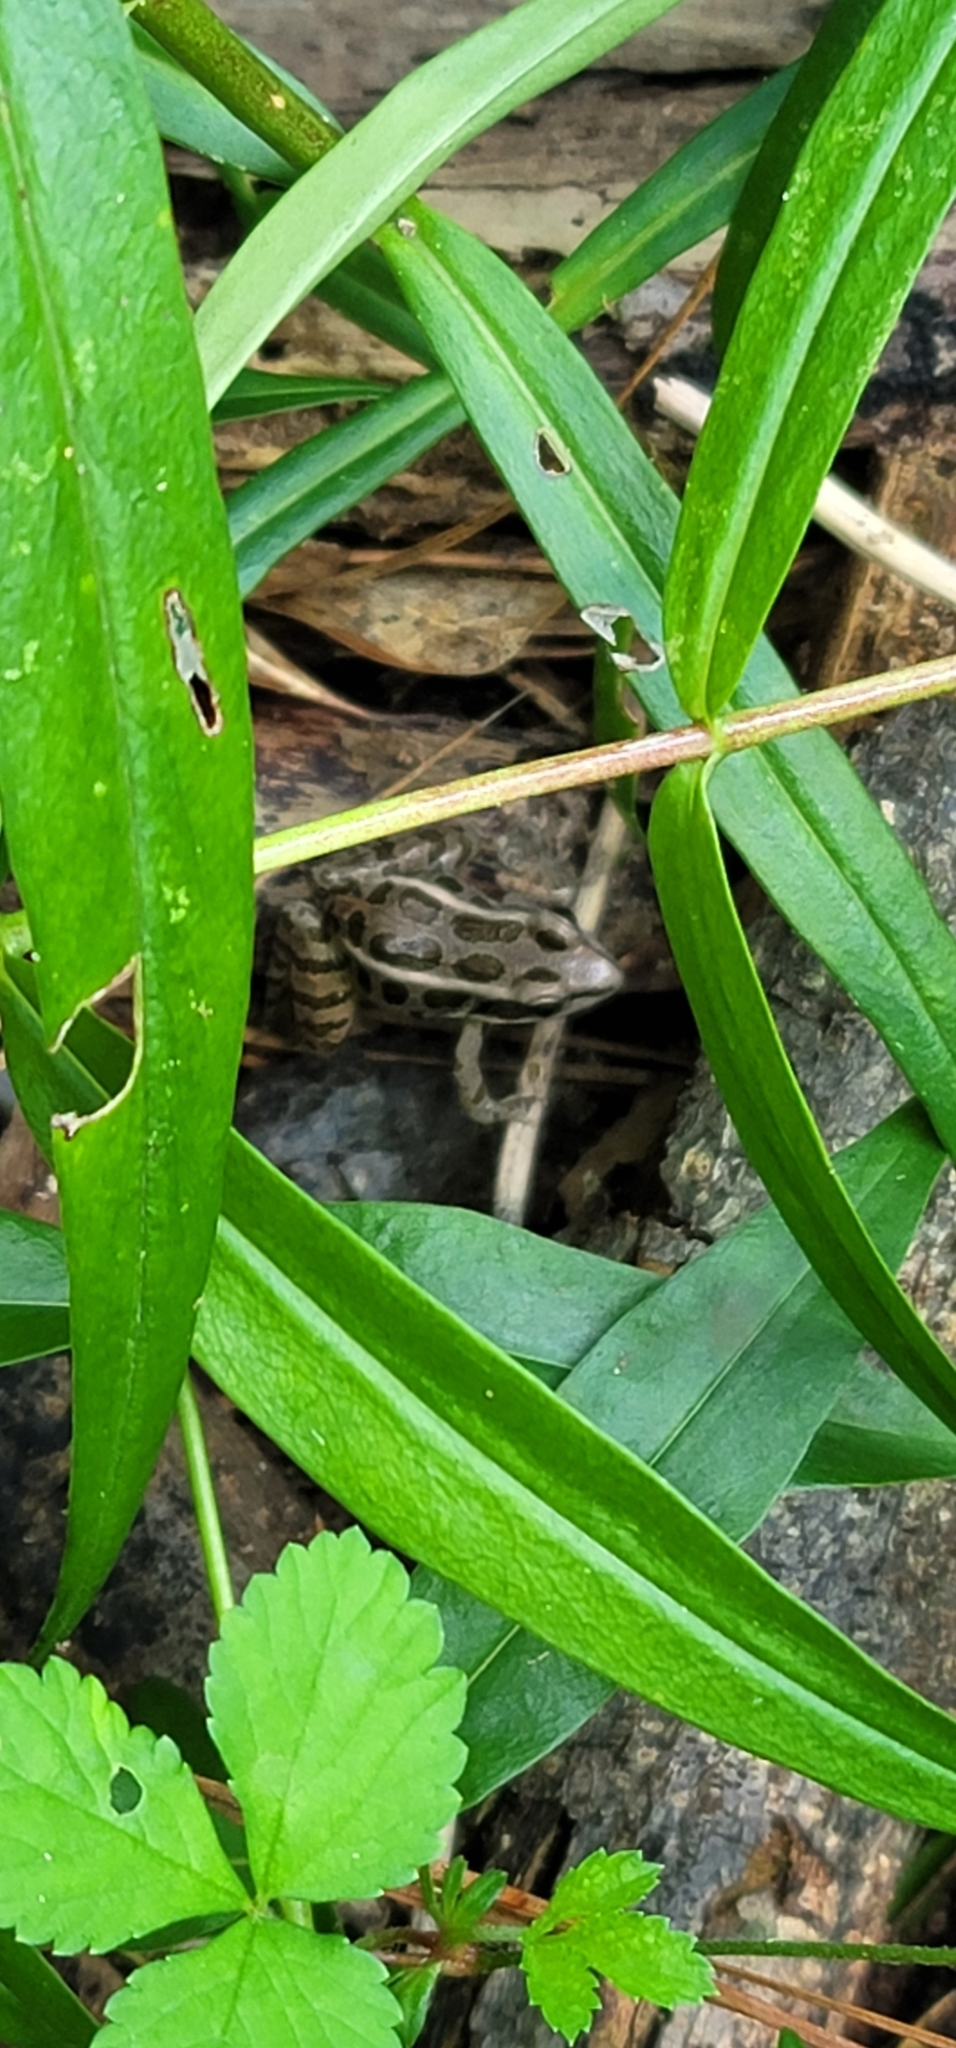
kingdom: Animalia
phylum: Chordata
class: Amphibia
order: Anura
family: Ranidae
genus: Lithobates
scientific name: Lithobates palustris
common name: Pickerel frog
